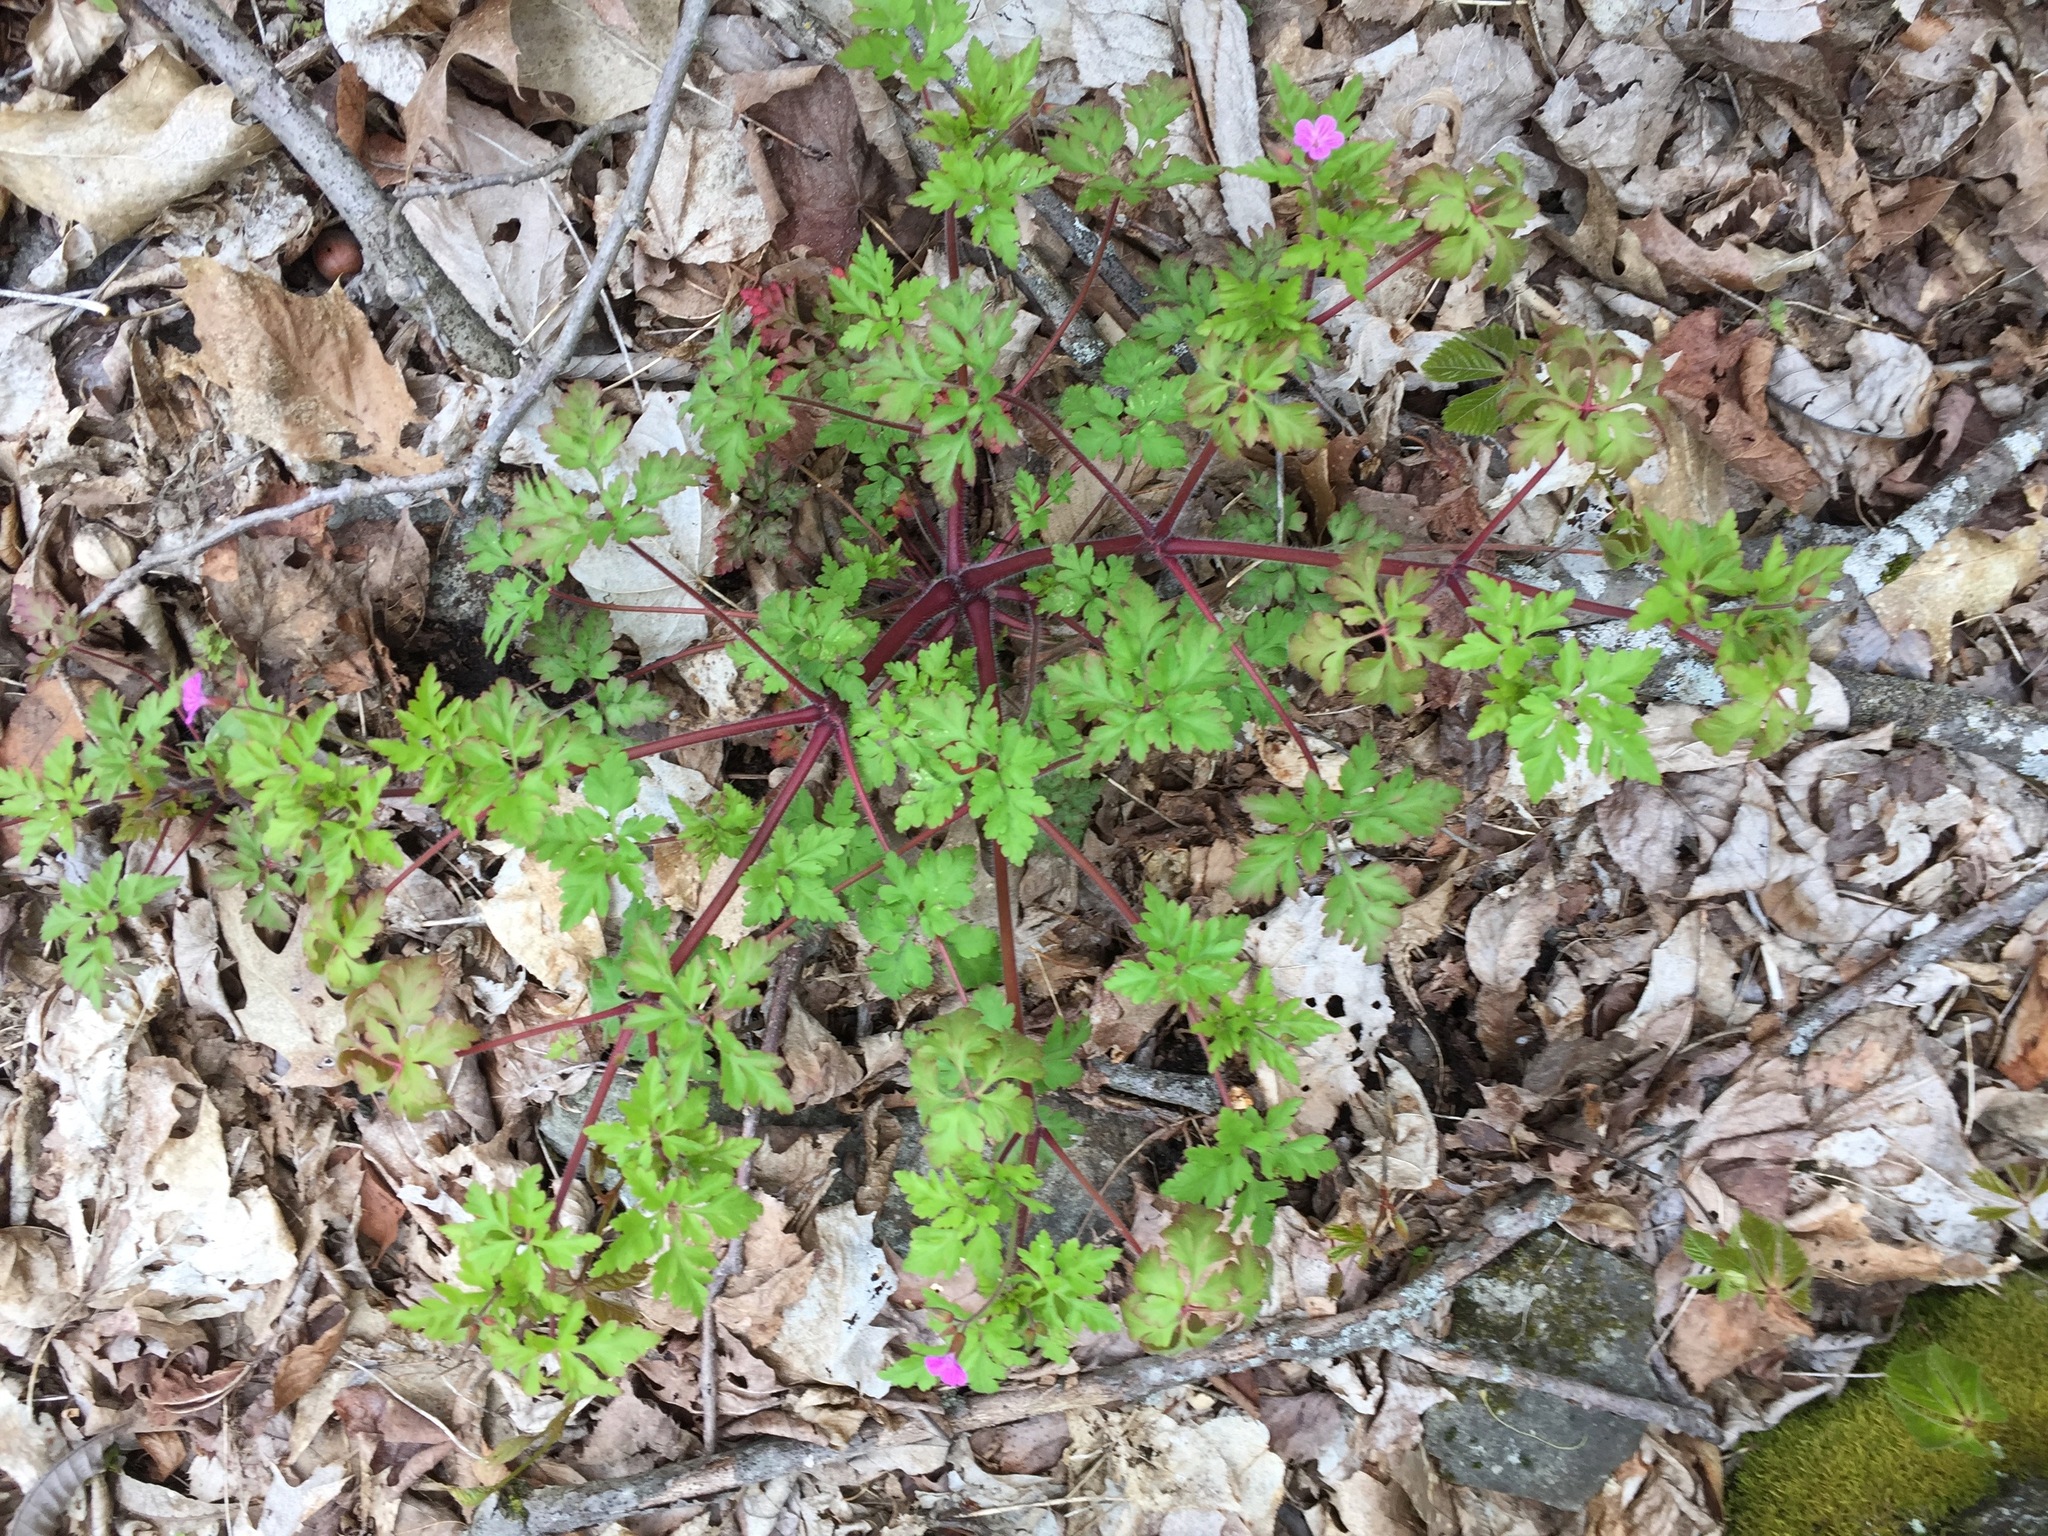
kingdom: Plantae
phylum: Tracheophyta
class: Magnoliopsida
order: Geraniales
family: Geraniaceae
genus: Geranium
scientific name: Geranium robertianum
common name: Herb-robert
